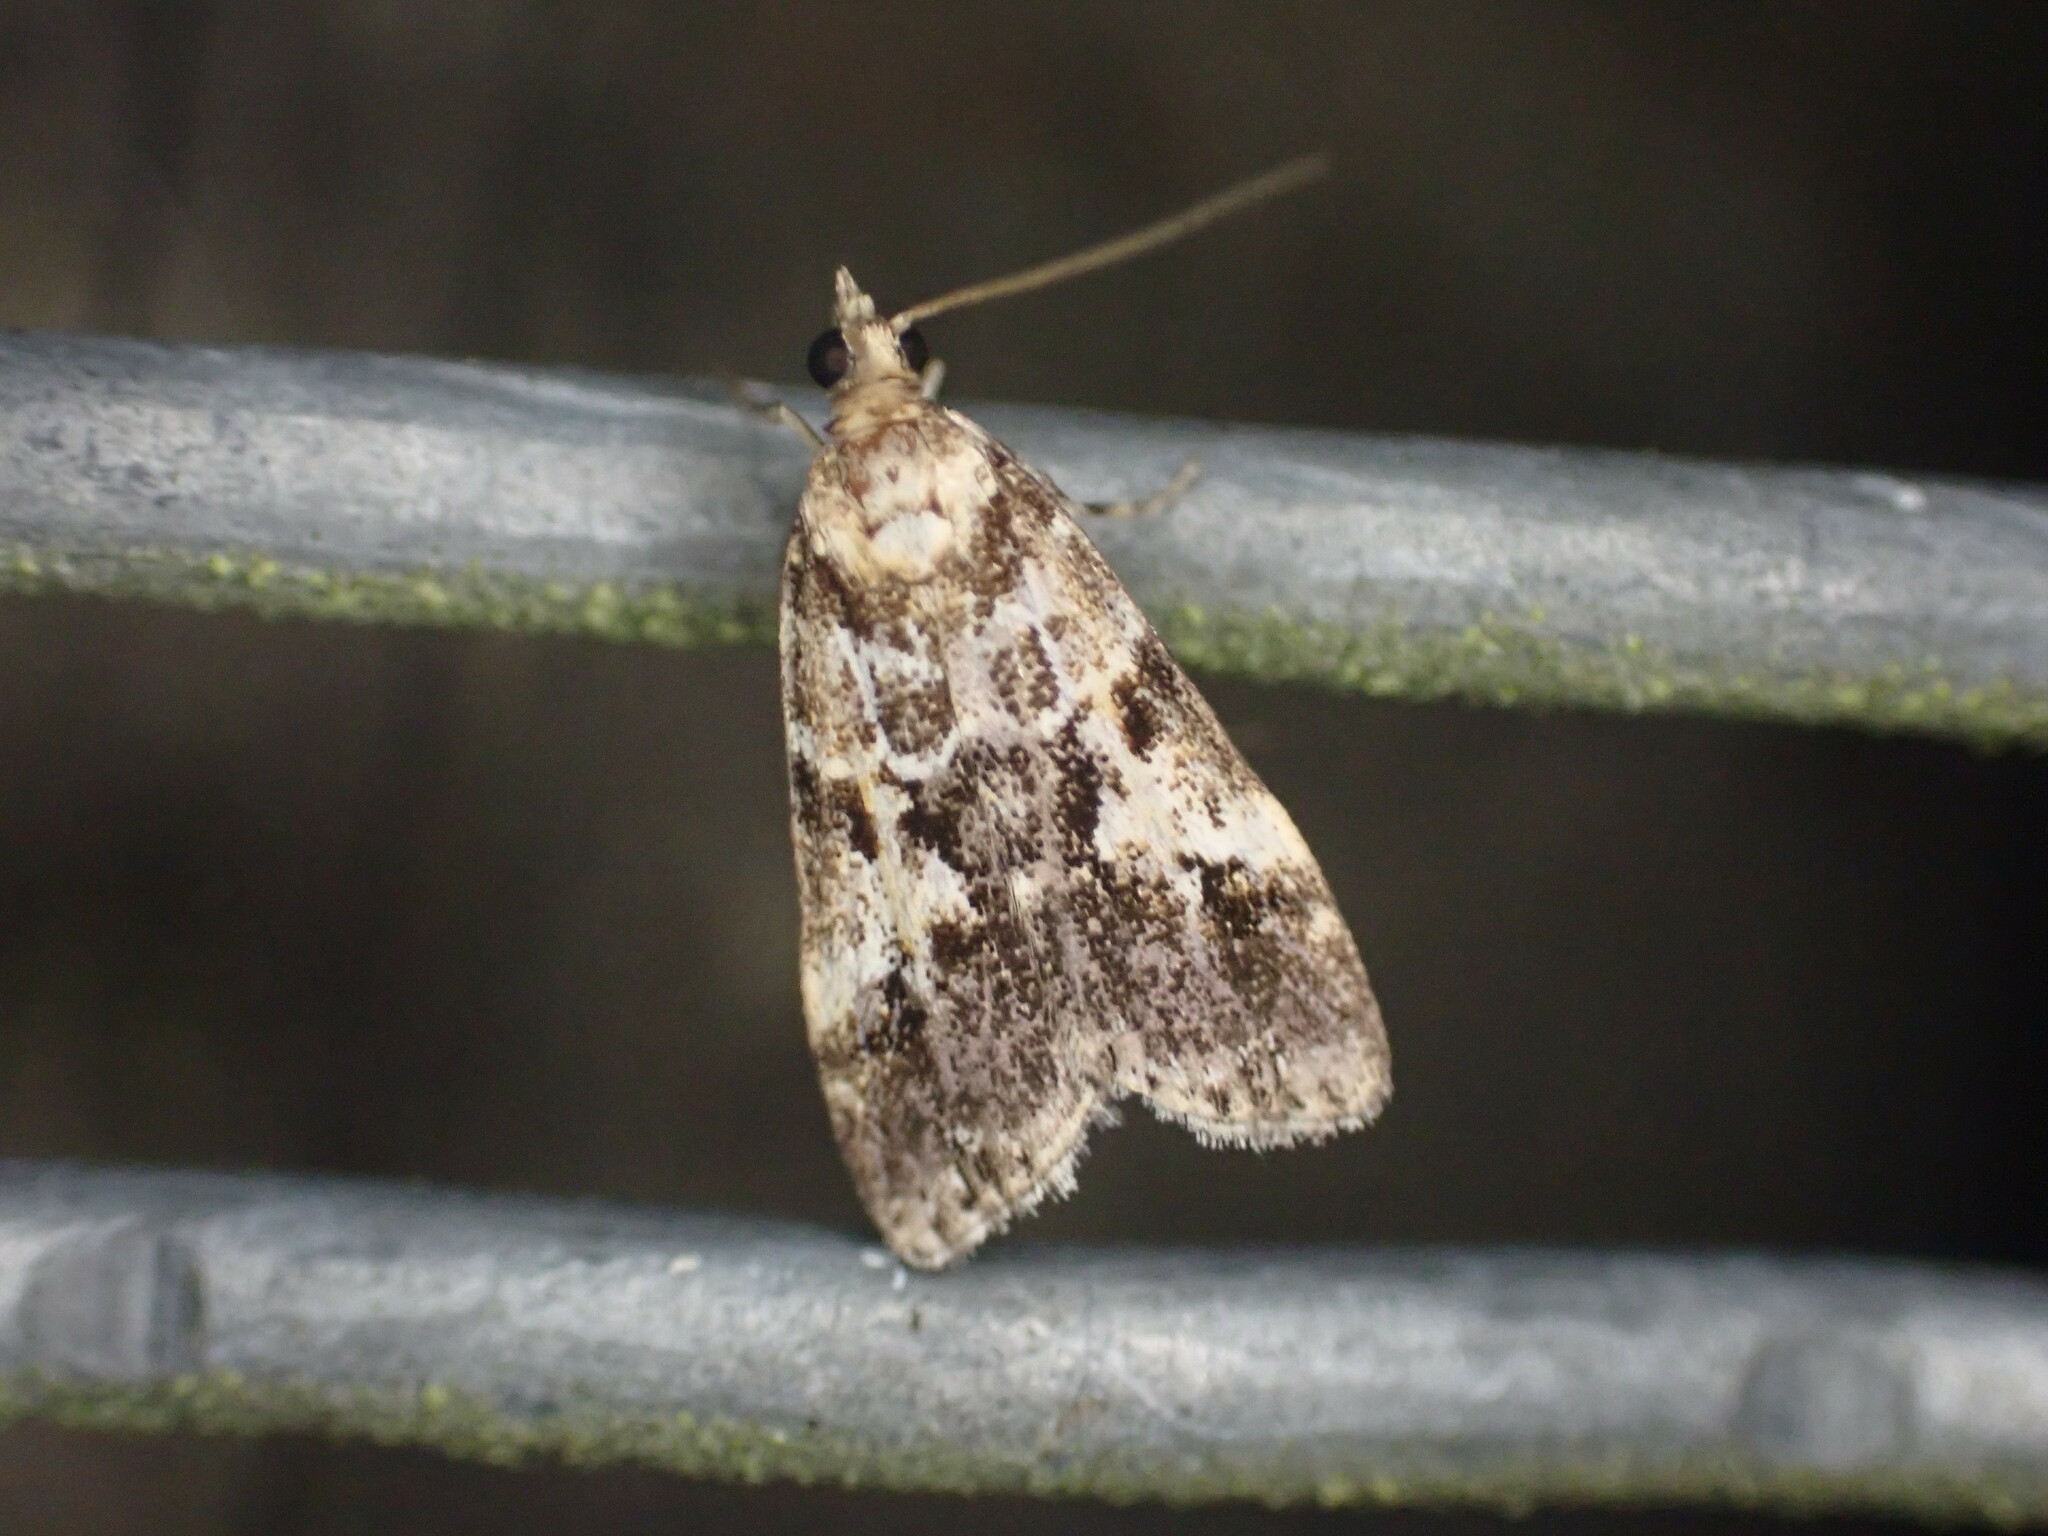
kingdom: Animalia
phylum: Arthropoda
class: Insecta
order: Lepidoptera
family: Crambidae
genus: Eudonia
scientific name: Eudonia characta
